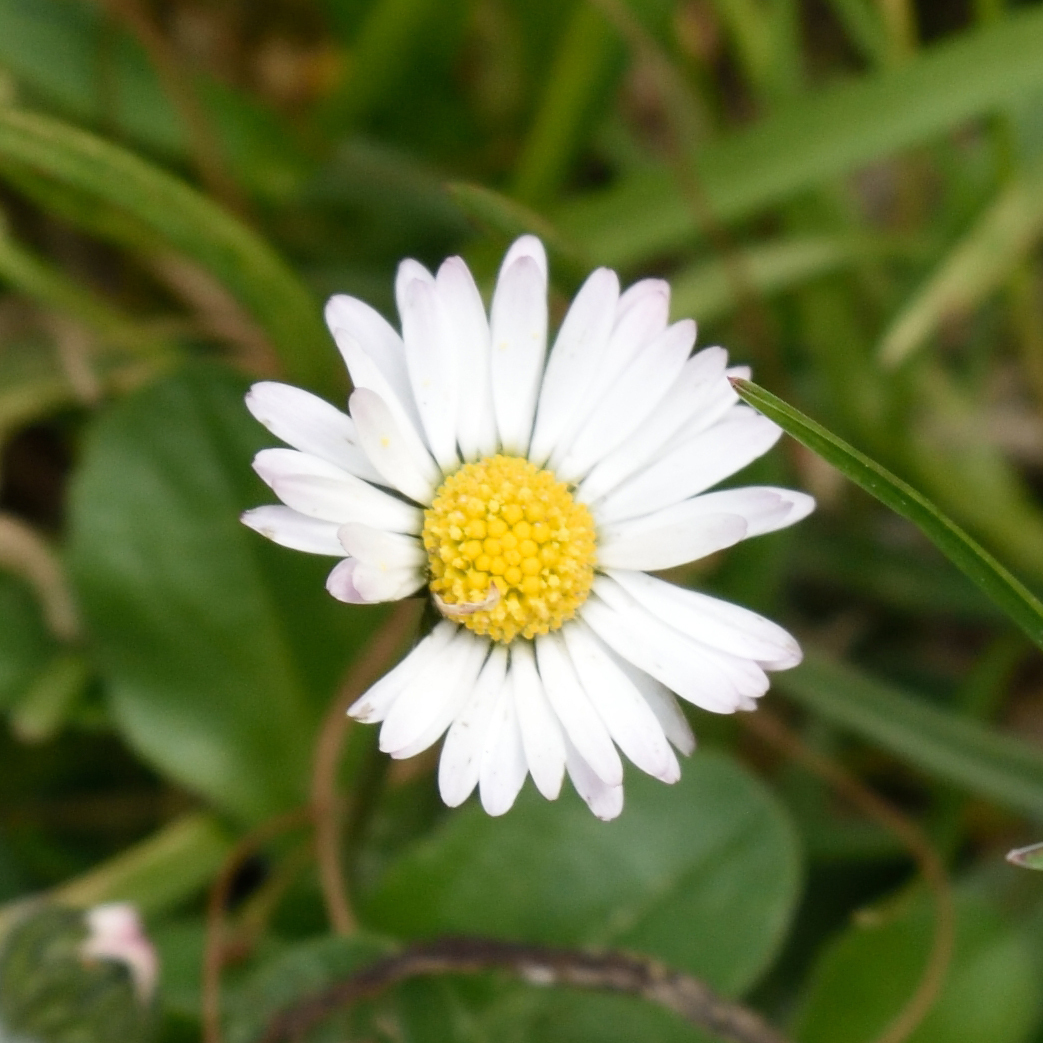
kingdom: Plantae
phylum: Tracheophyta
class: Magnoliopsida
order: Asterales
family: Asteraceae
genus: Bellis
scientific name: Bellis perennis
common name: Lawndaisy
